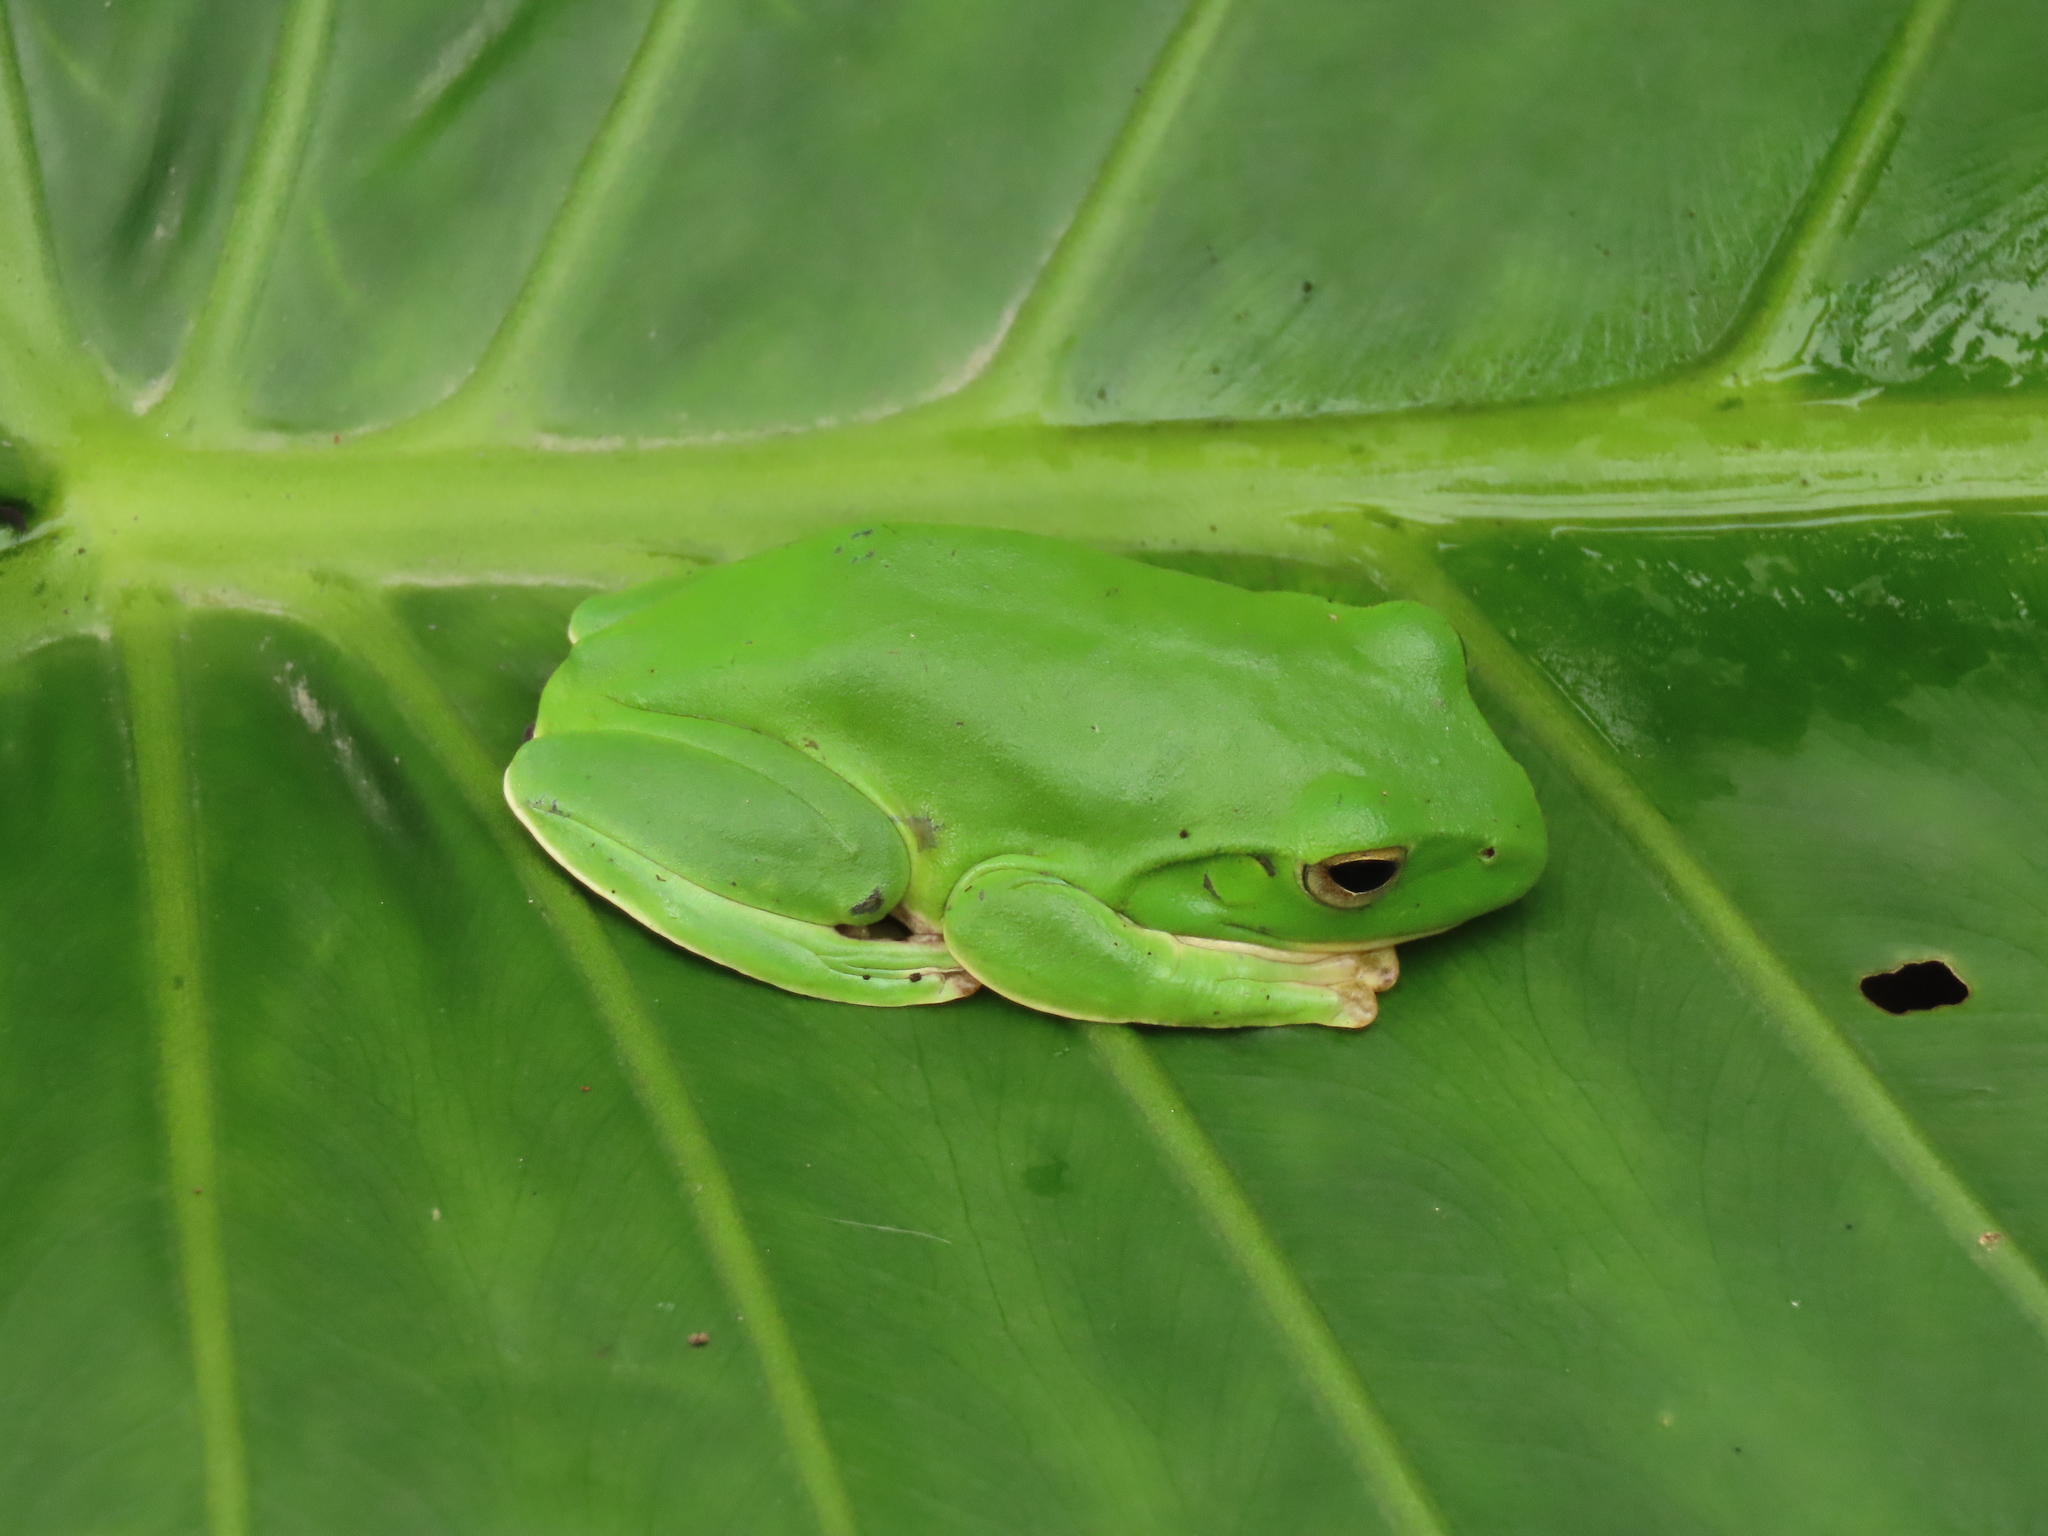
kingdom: Animalia
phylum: Chordata
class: Amphibia
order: Anura
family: Rhacophoridae
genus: Zhangixalus
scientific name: Zhangixalus moltrechti
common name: Moltrecht's treefrog
